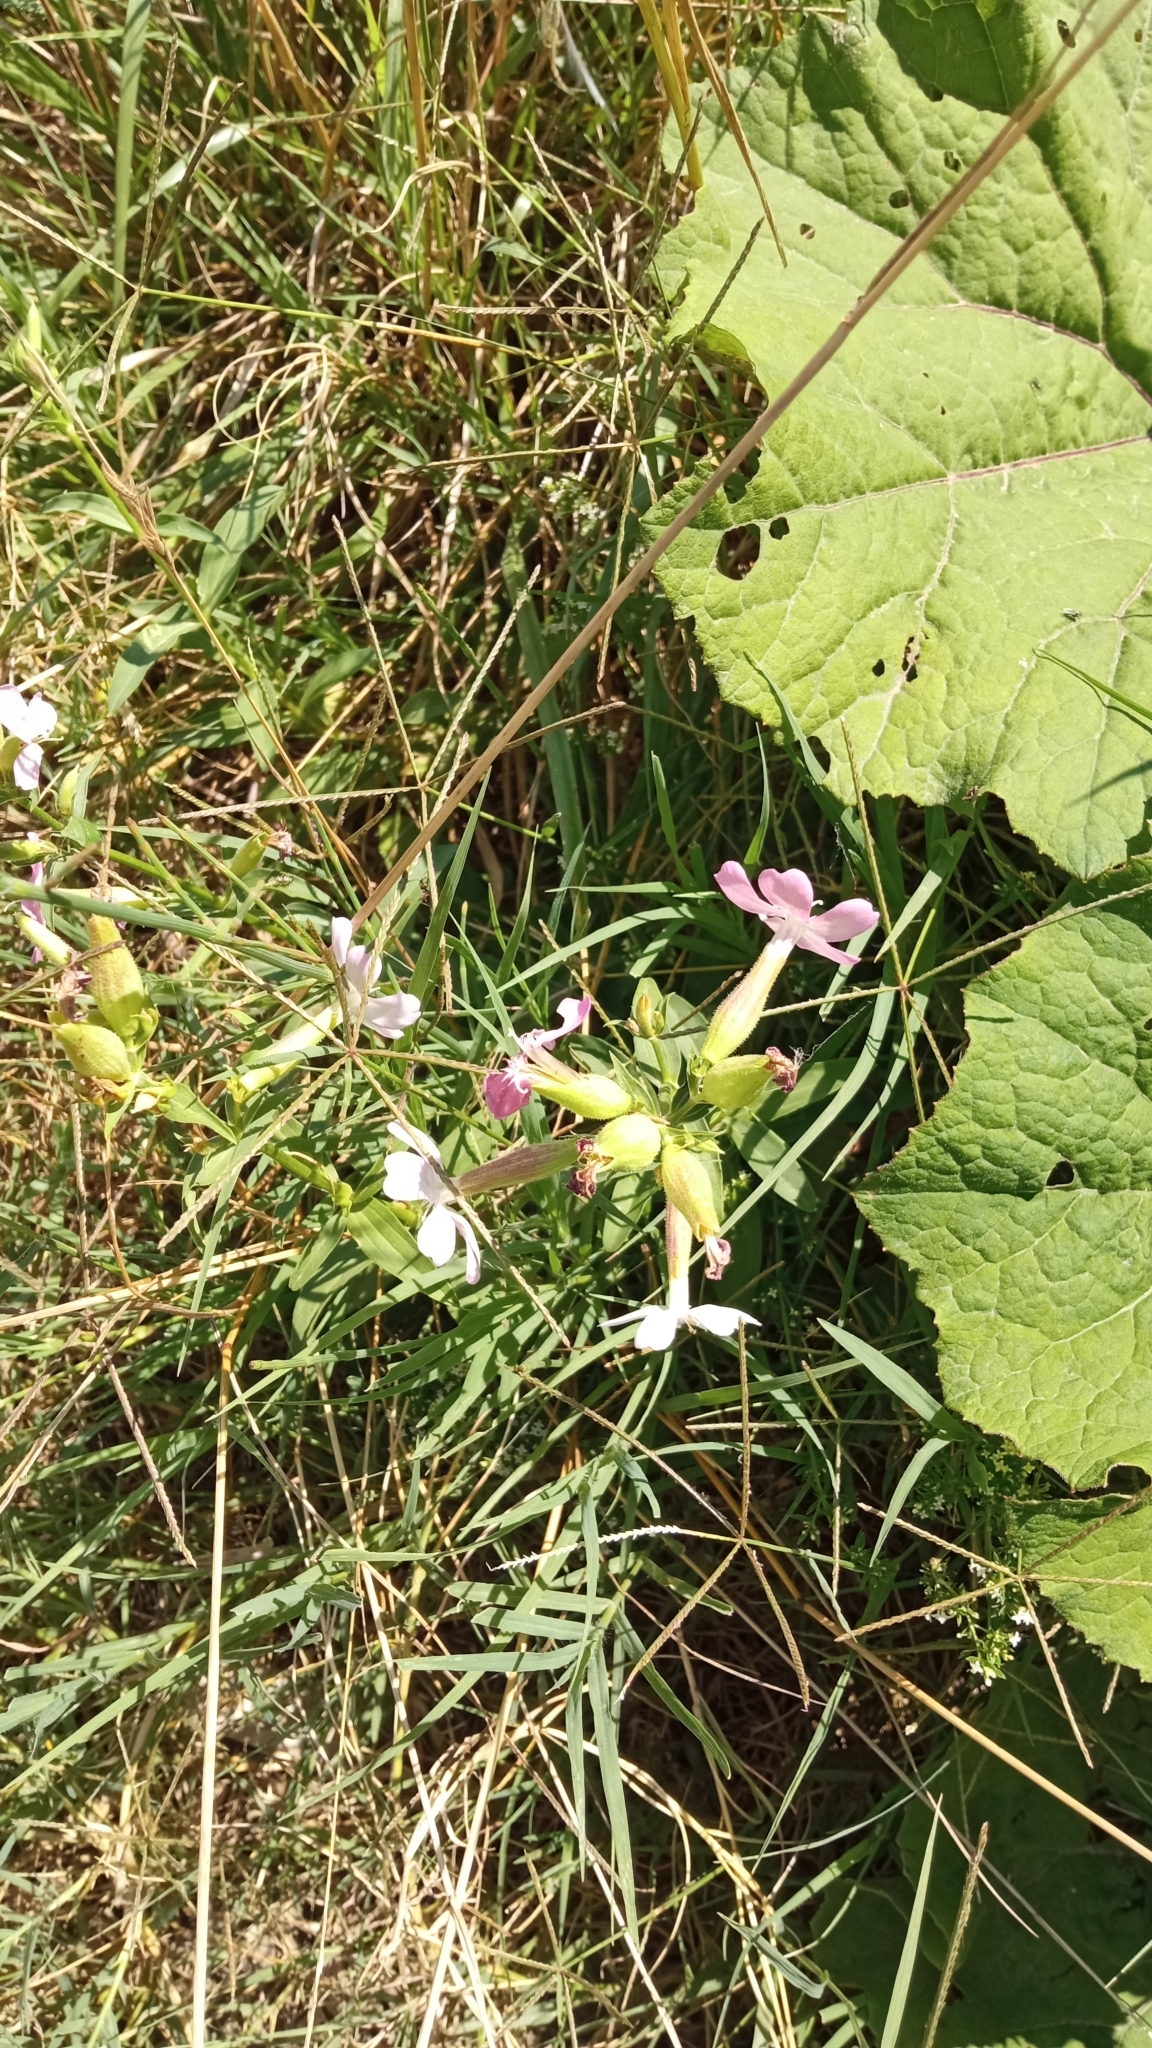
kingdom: Plantae
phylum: Tracheophyta
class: Magnoliopsida
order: Caryophyllales
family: Caryophyllaceae
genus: Saponaria
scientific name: Saponaria officinalis
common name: Soapwort
